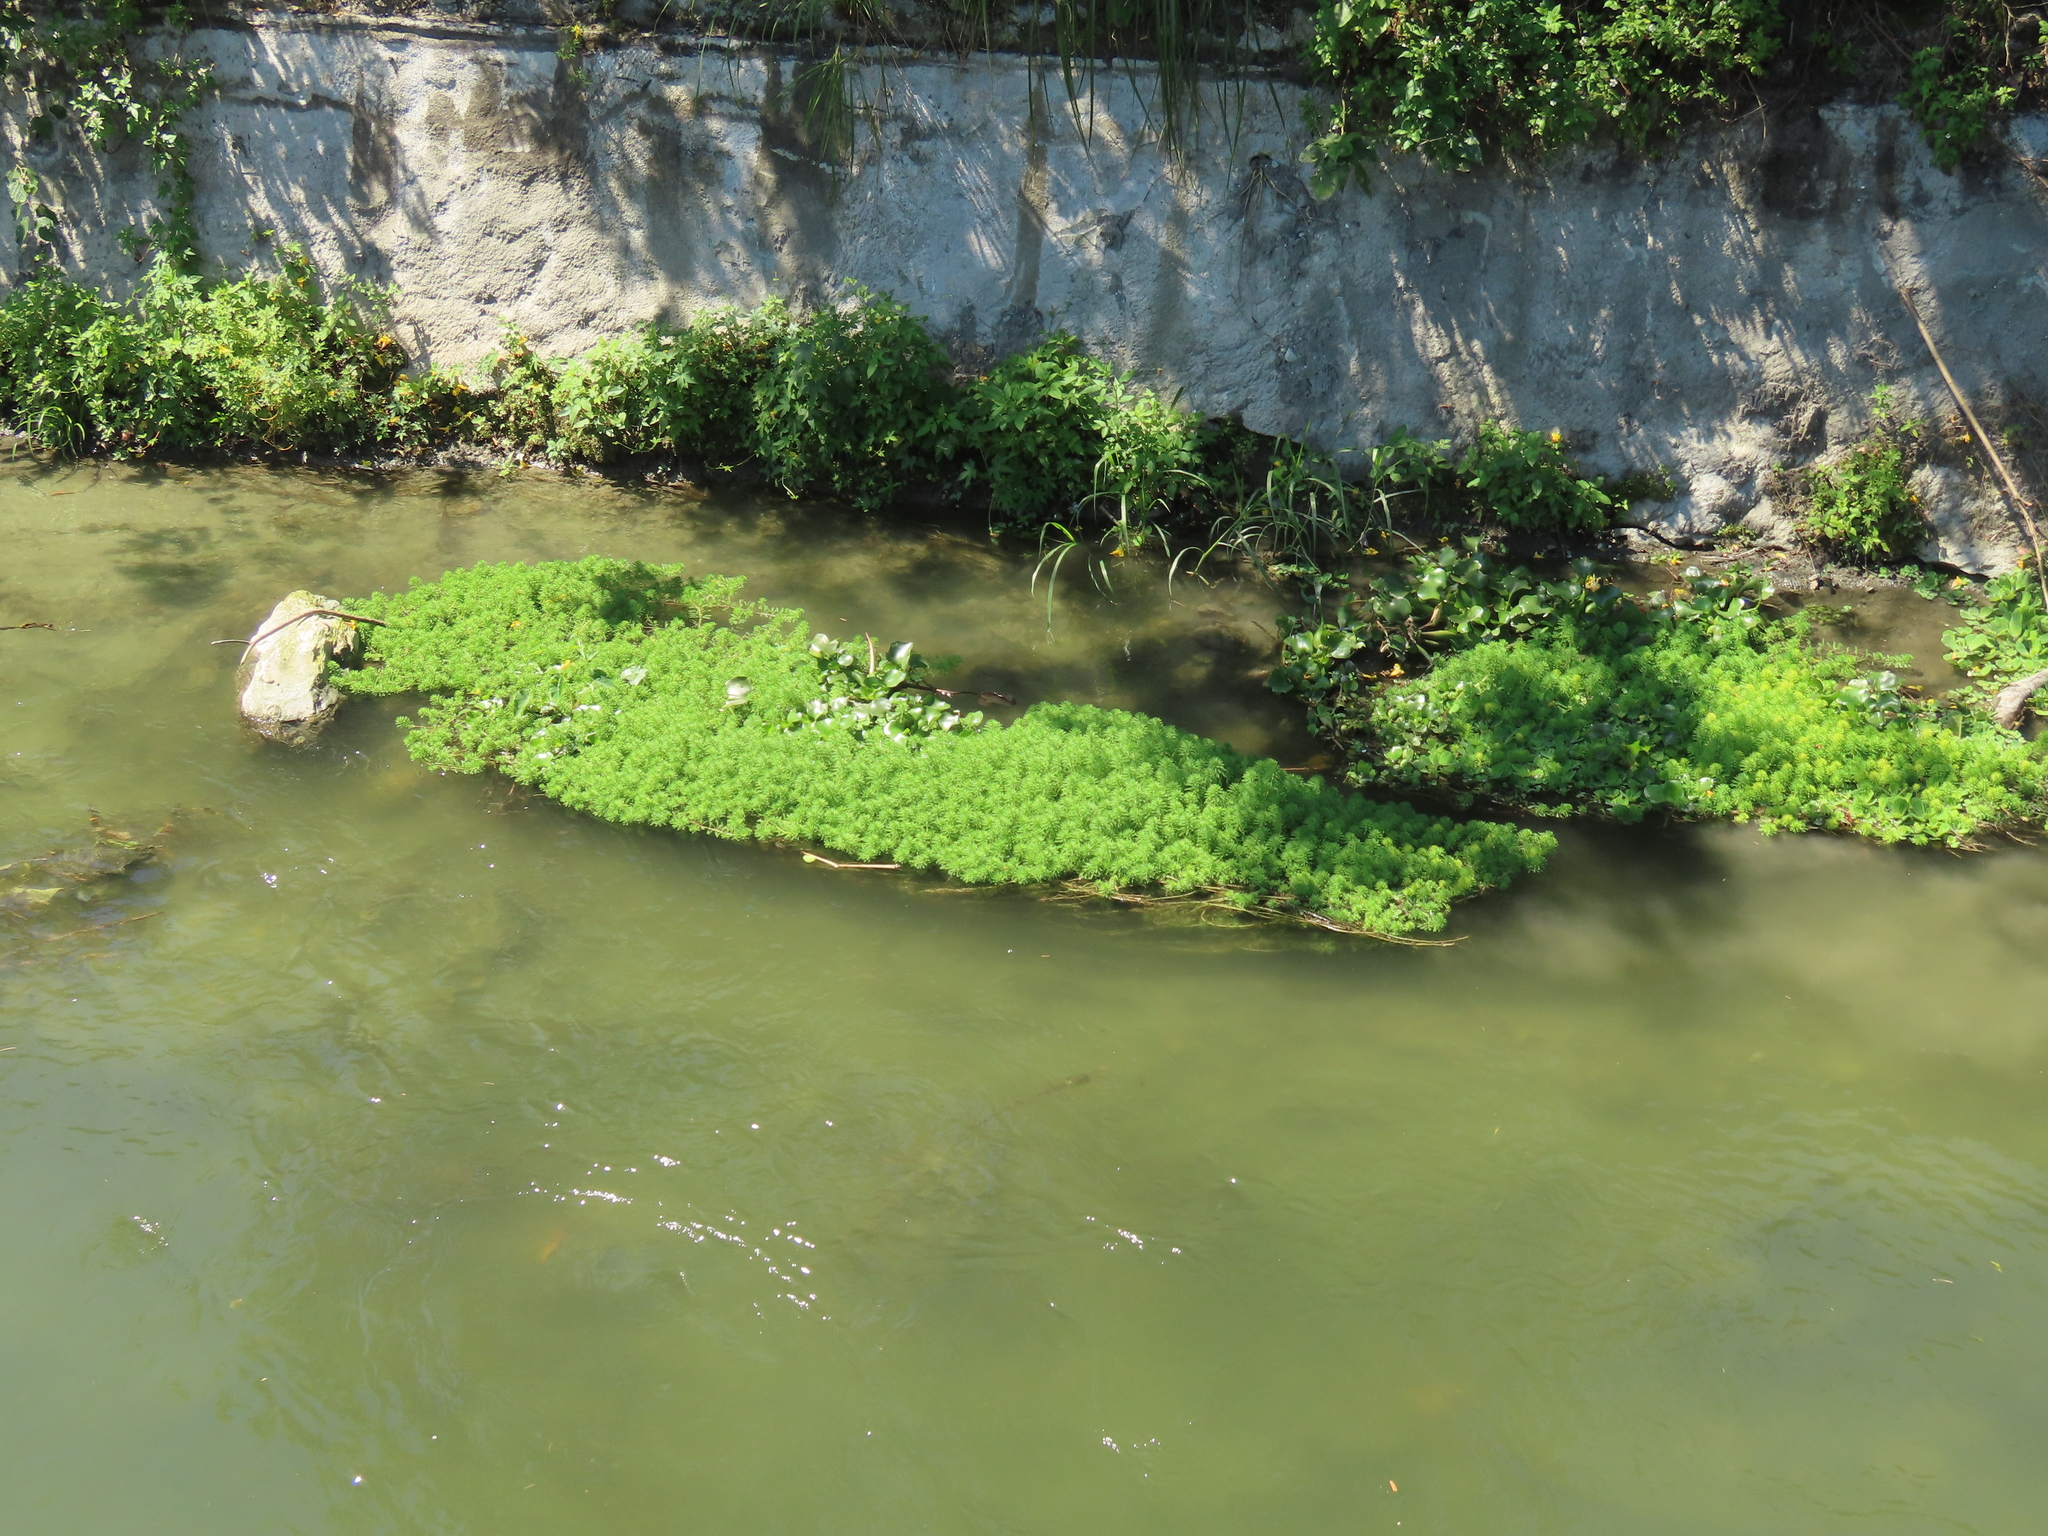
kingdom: Plantae
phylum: Tracheophyta
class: Magnoliopsida
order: Saxifragales
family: Haloragaceae
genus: Myriophyllum
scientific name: Myriophyllum aquaticum
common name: Parrot's feather
